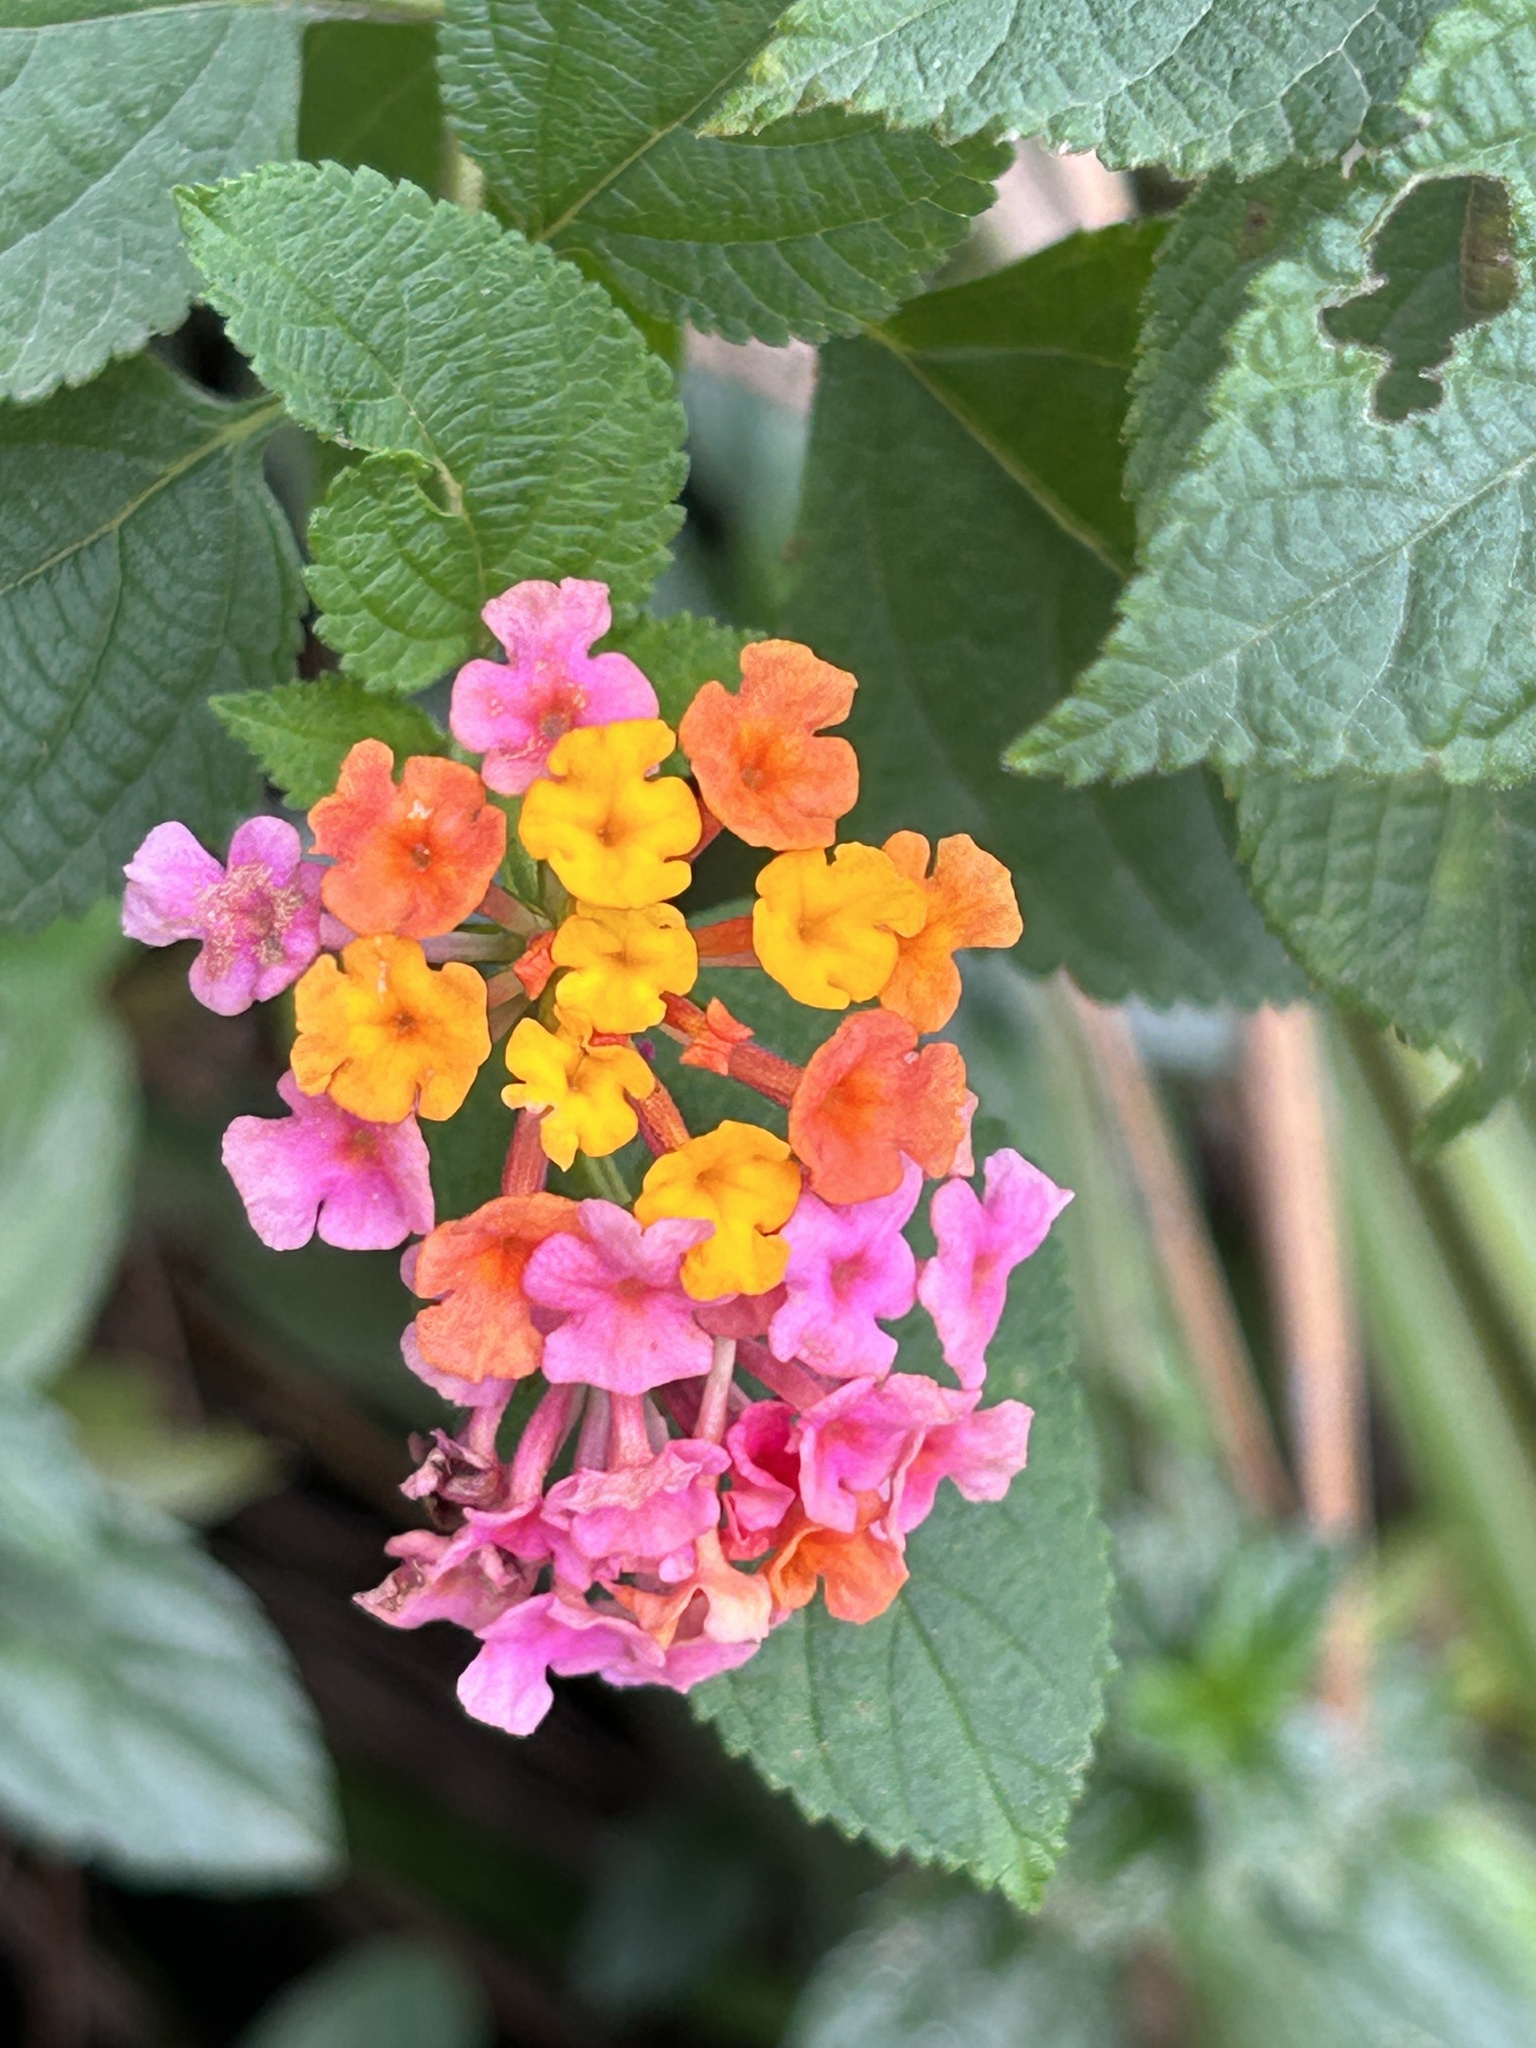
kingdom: Plantae
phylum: Tracheophyta
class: Magnoliopsida
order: Lamiales
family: Verbenaceae
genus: Lantana
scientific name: Lantana camara
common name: Lantana
